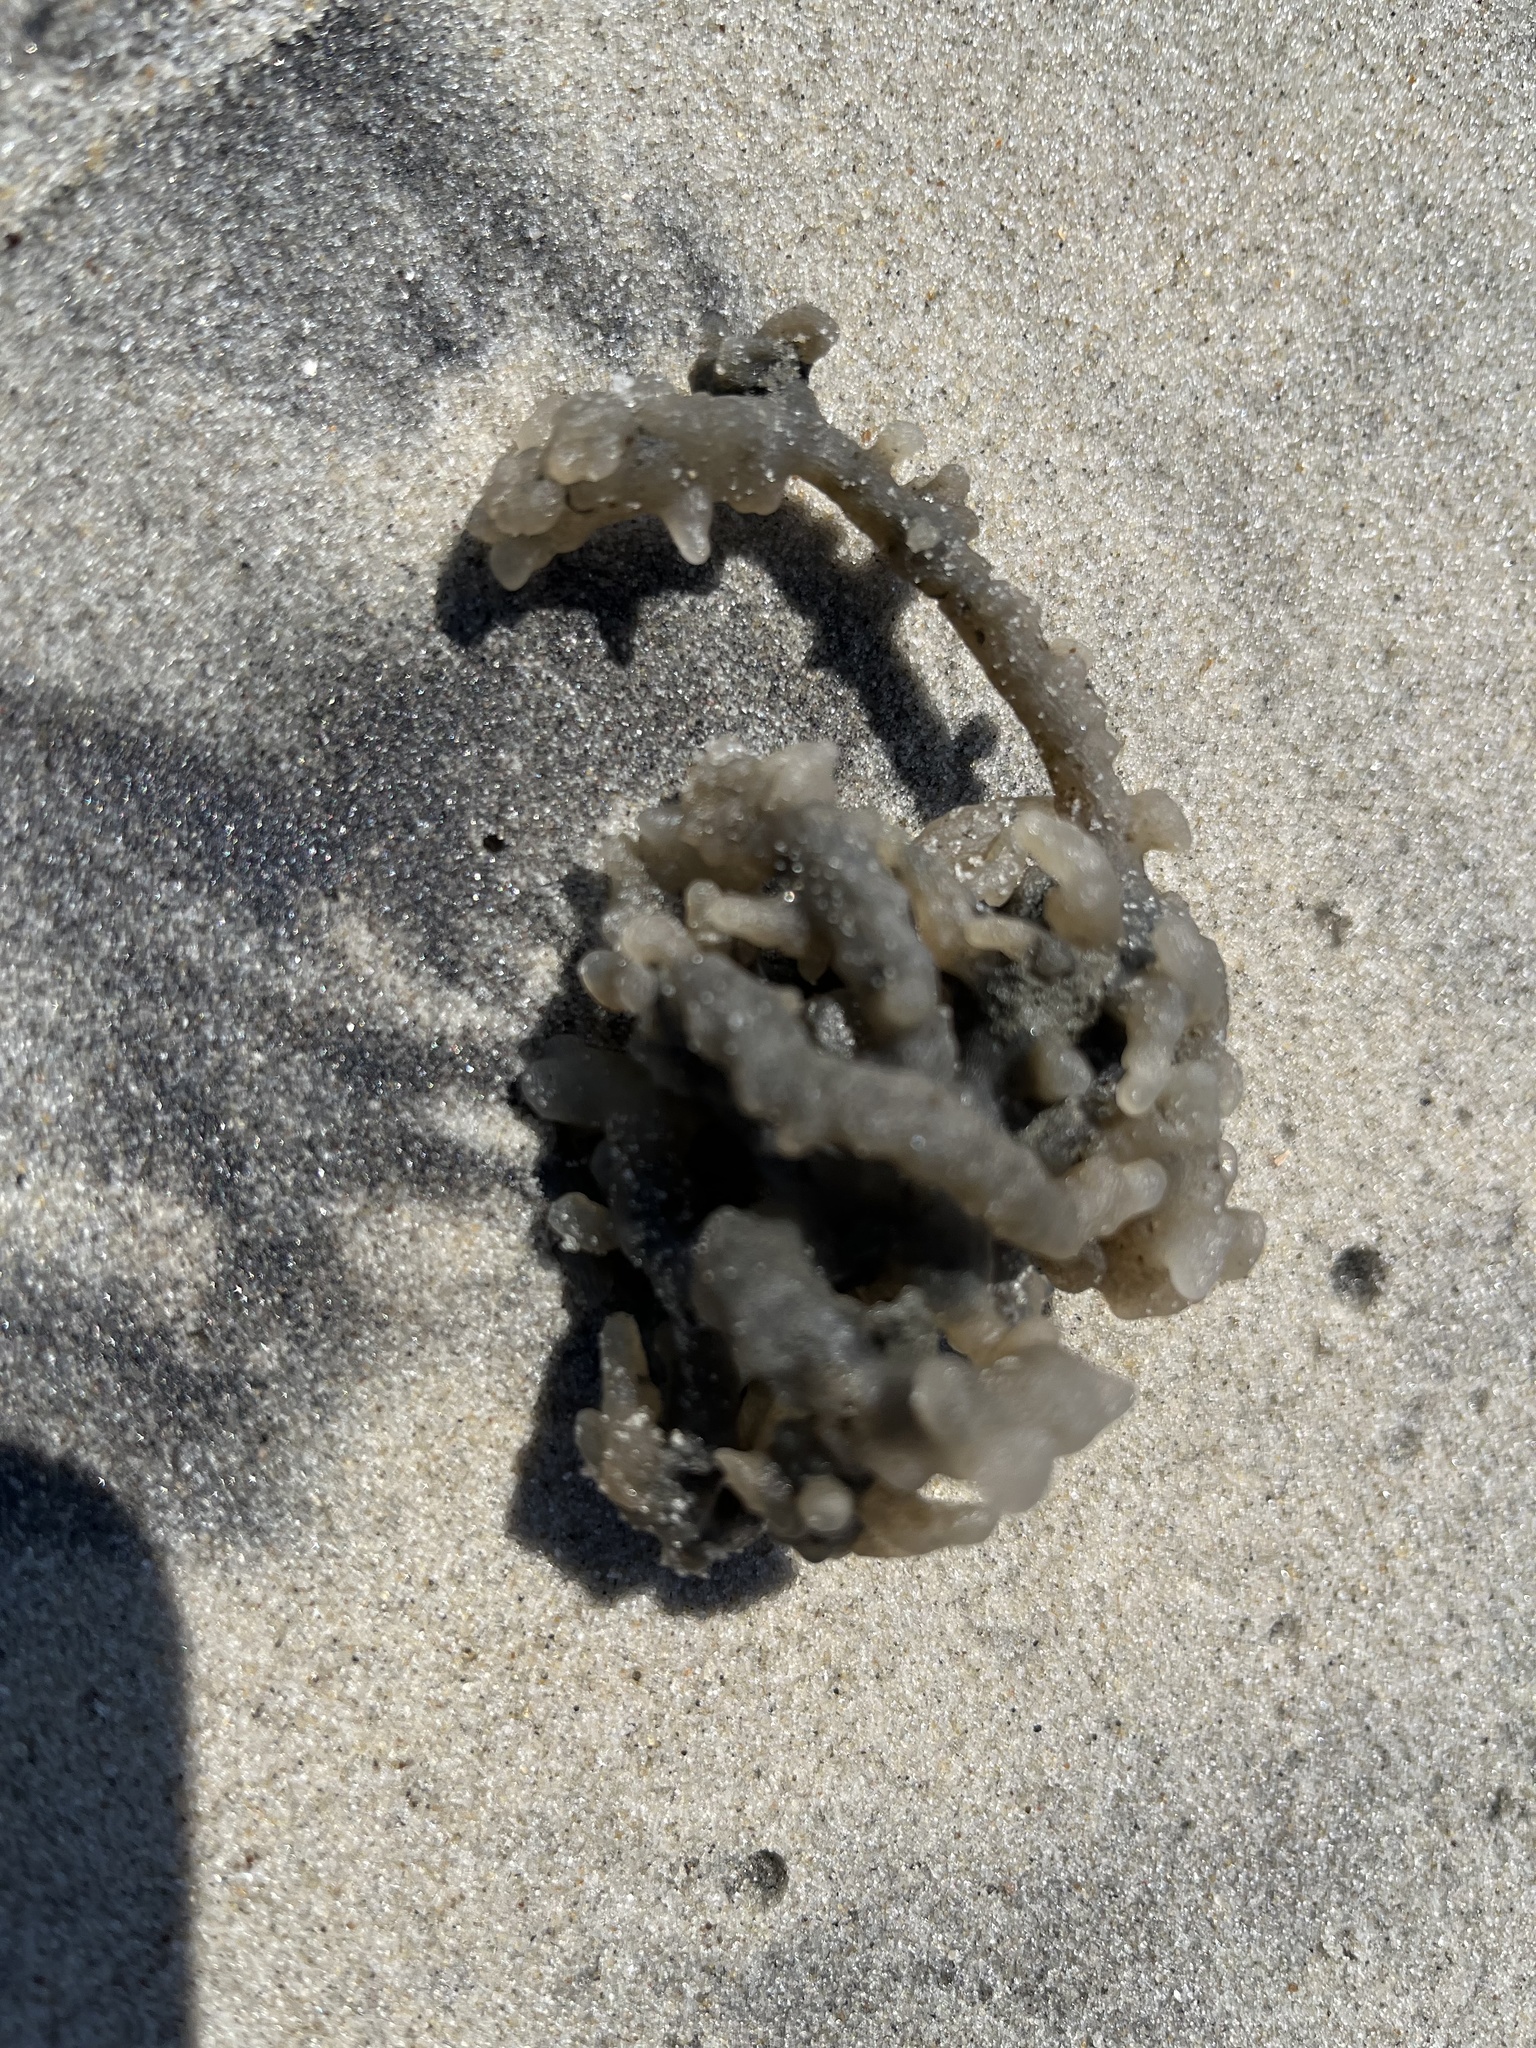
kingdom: Animalia
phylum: Bryozoa
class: Gymnolaemata
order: Ctenostomatida
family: Alcyonidiidae
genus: Alcyonidium
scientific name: Alcyonidium hauffi
